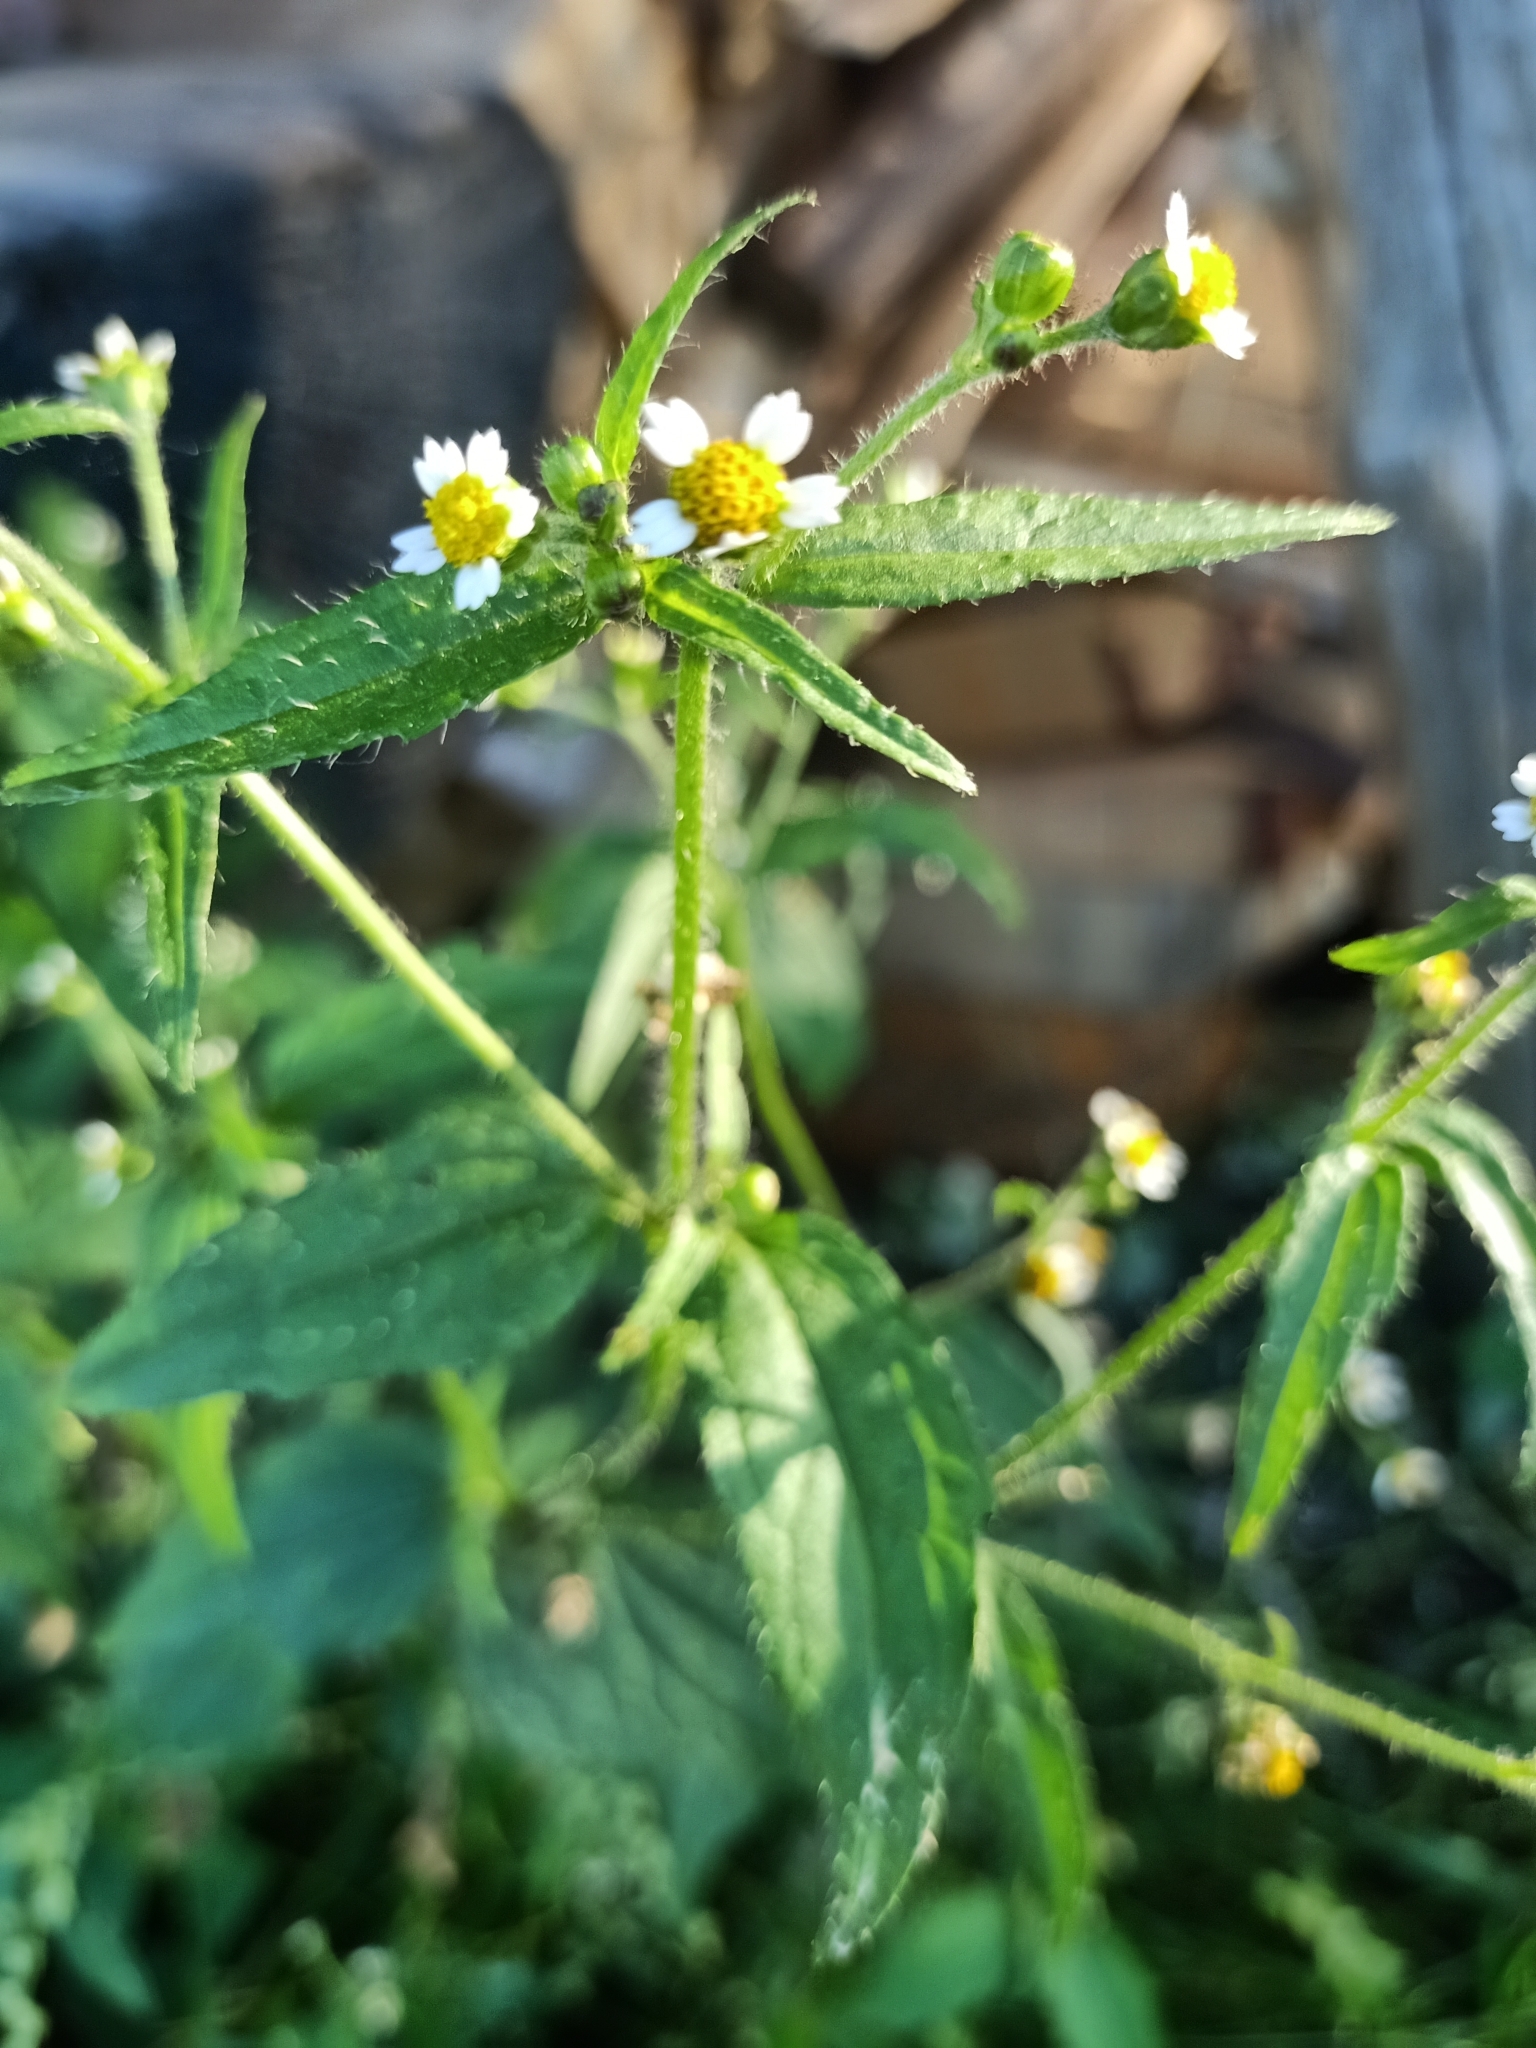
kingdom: Plantae
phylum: Tracheophyta
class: Magnoliopsida
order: Asterales
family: Asteraceae
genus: Galinsoga
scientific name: Galinsoga quadriradiata
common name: Shaggy soldier
